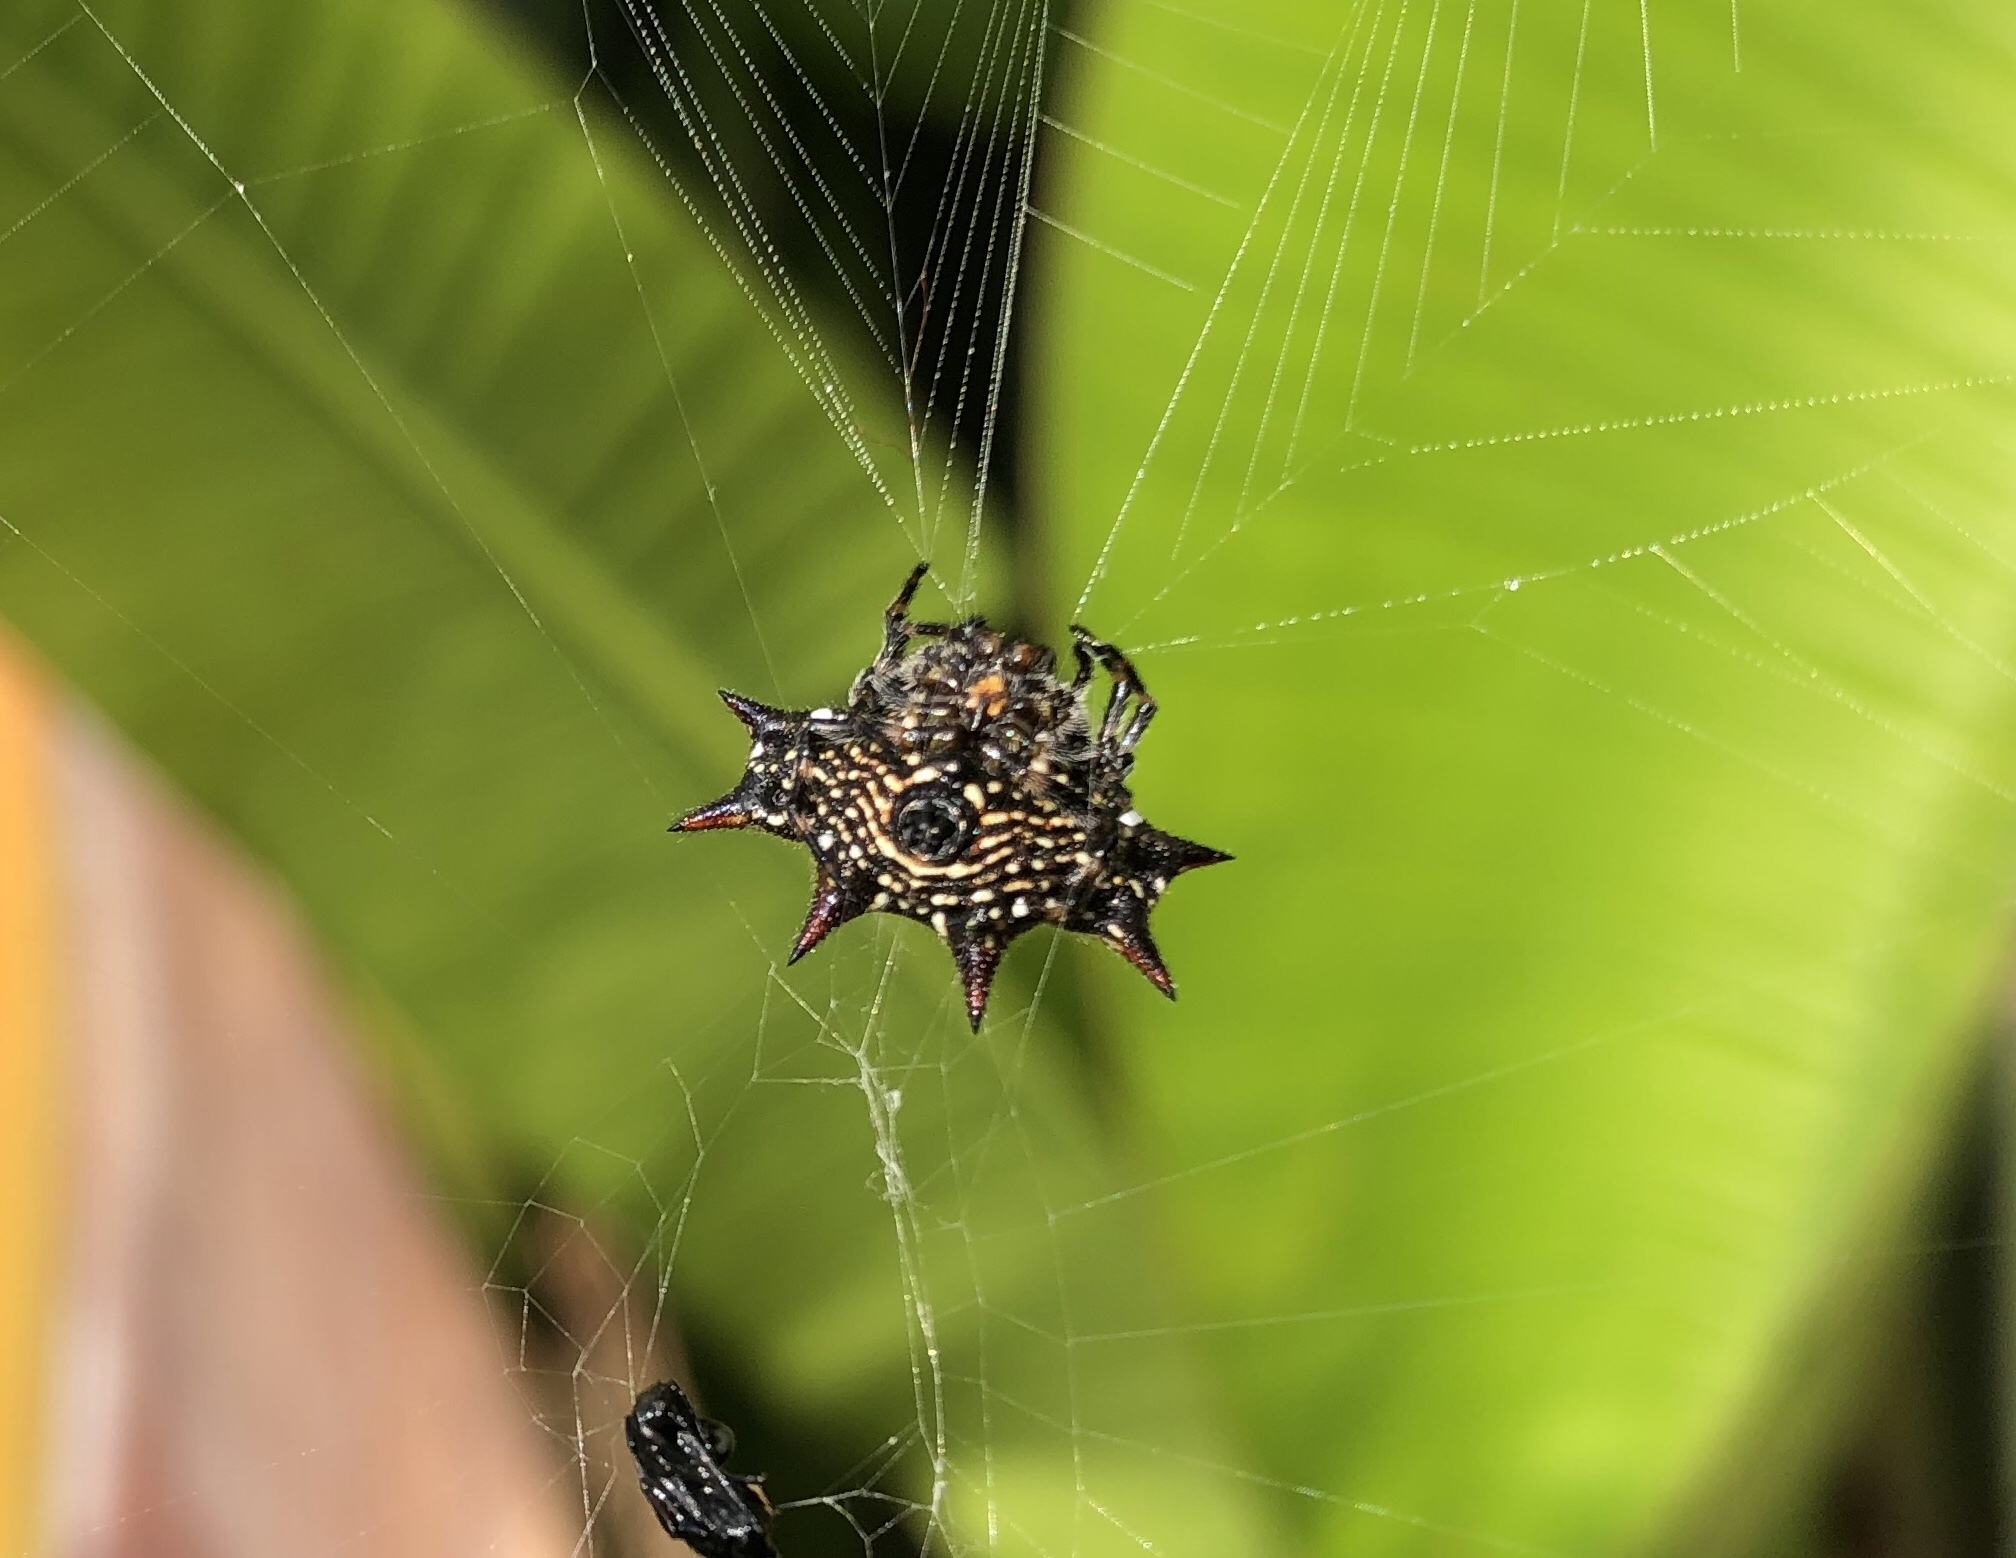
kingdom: Animalia
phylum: Arthropoda
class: Arachnida
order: Araneae
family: Araneidae
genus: Gasteracantha
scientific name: Gasteracantha cancriformis
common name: Orb weavers
